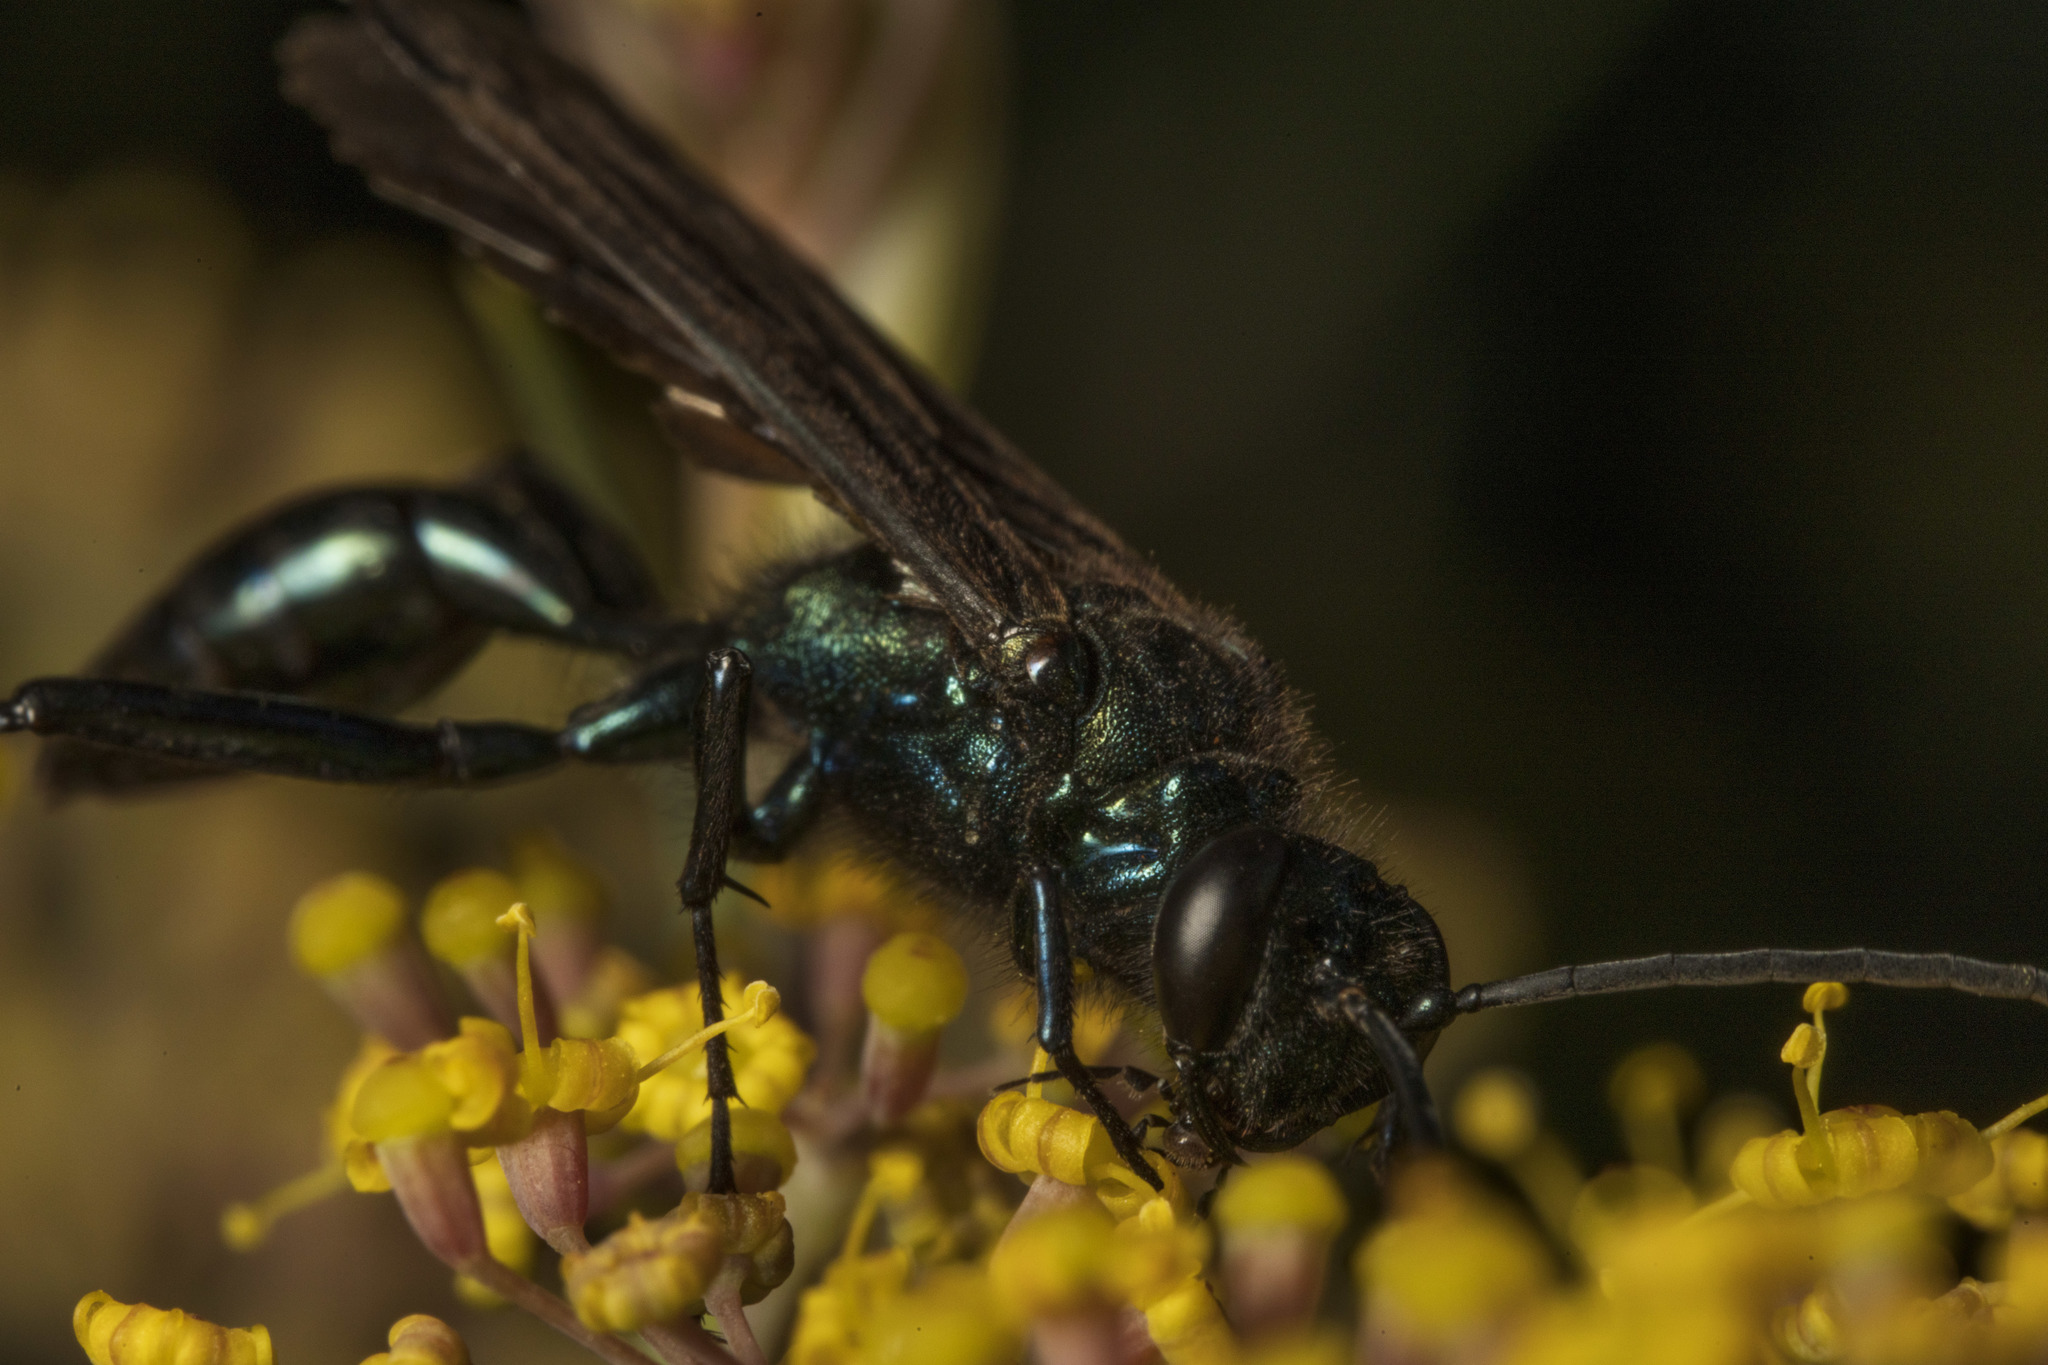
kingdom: Animalia
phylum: Arthropoda
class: Insecta
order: Hymenoptera
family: Sphecidae
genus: Chalybion
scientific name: Chalybion californicum
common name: Mud dauber
